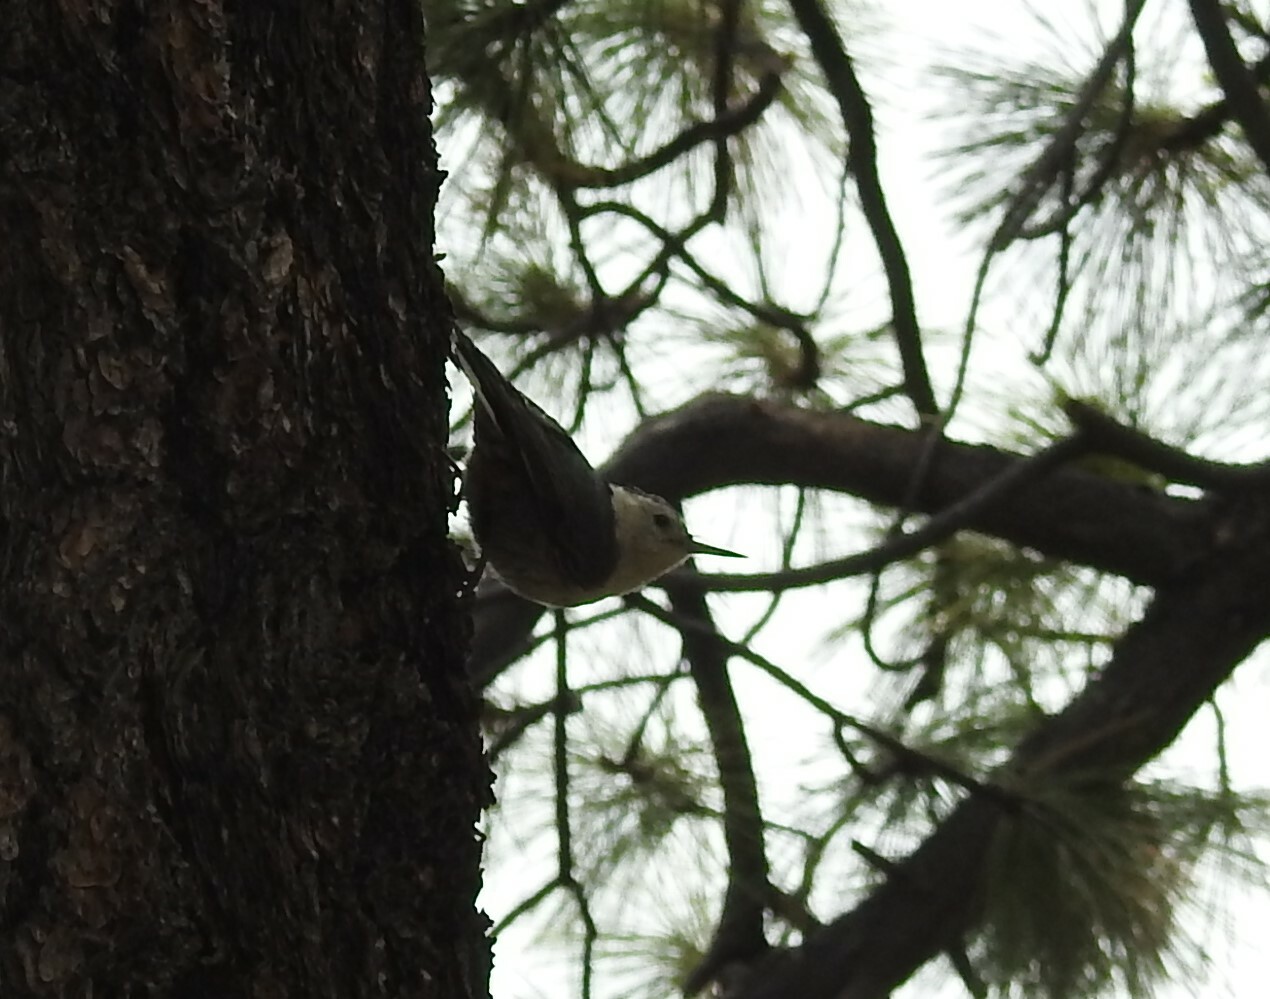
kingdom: Animalia
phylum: Chordata
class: Aves
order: Passeriformes
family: Sittidae
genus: Sitta
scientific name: Sitta carolinensis
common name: White-breasted nuthatch
